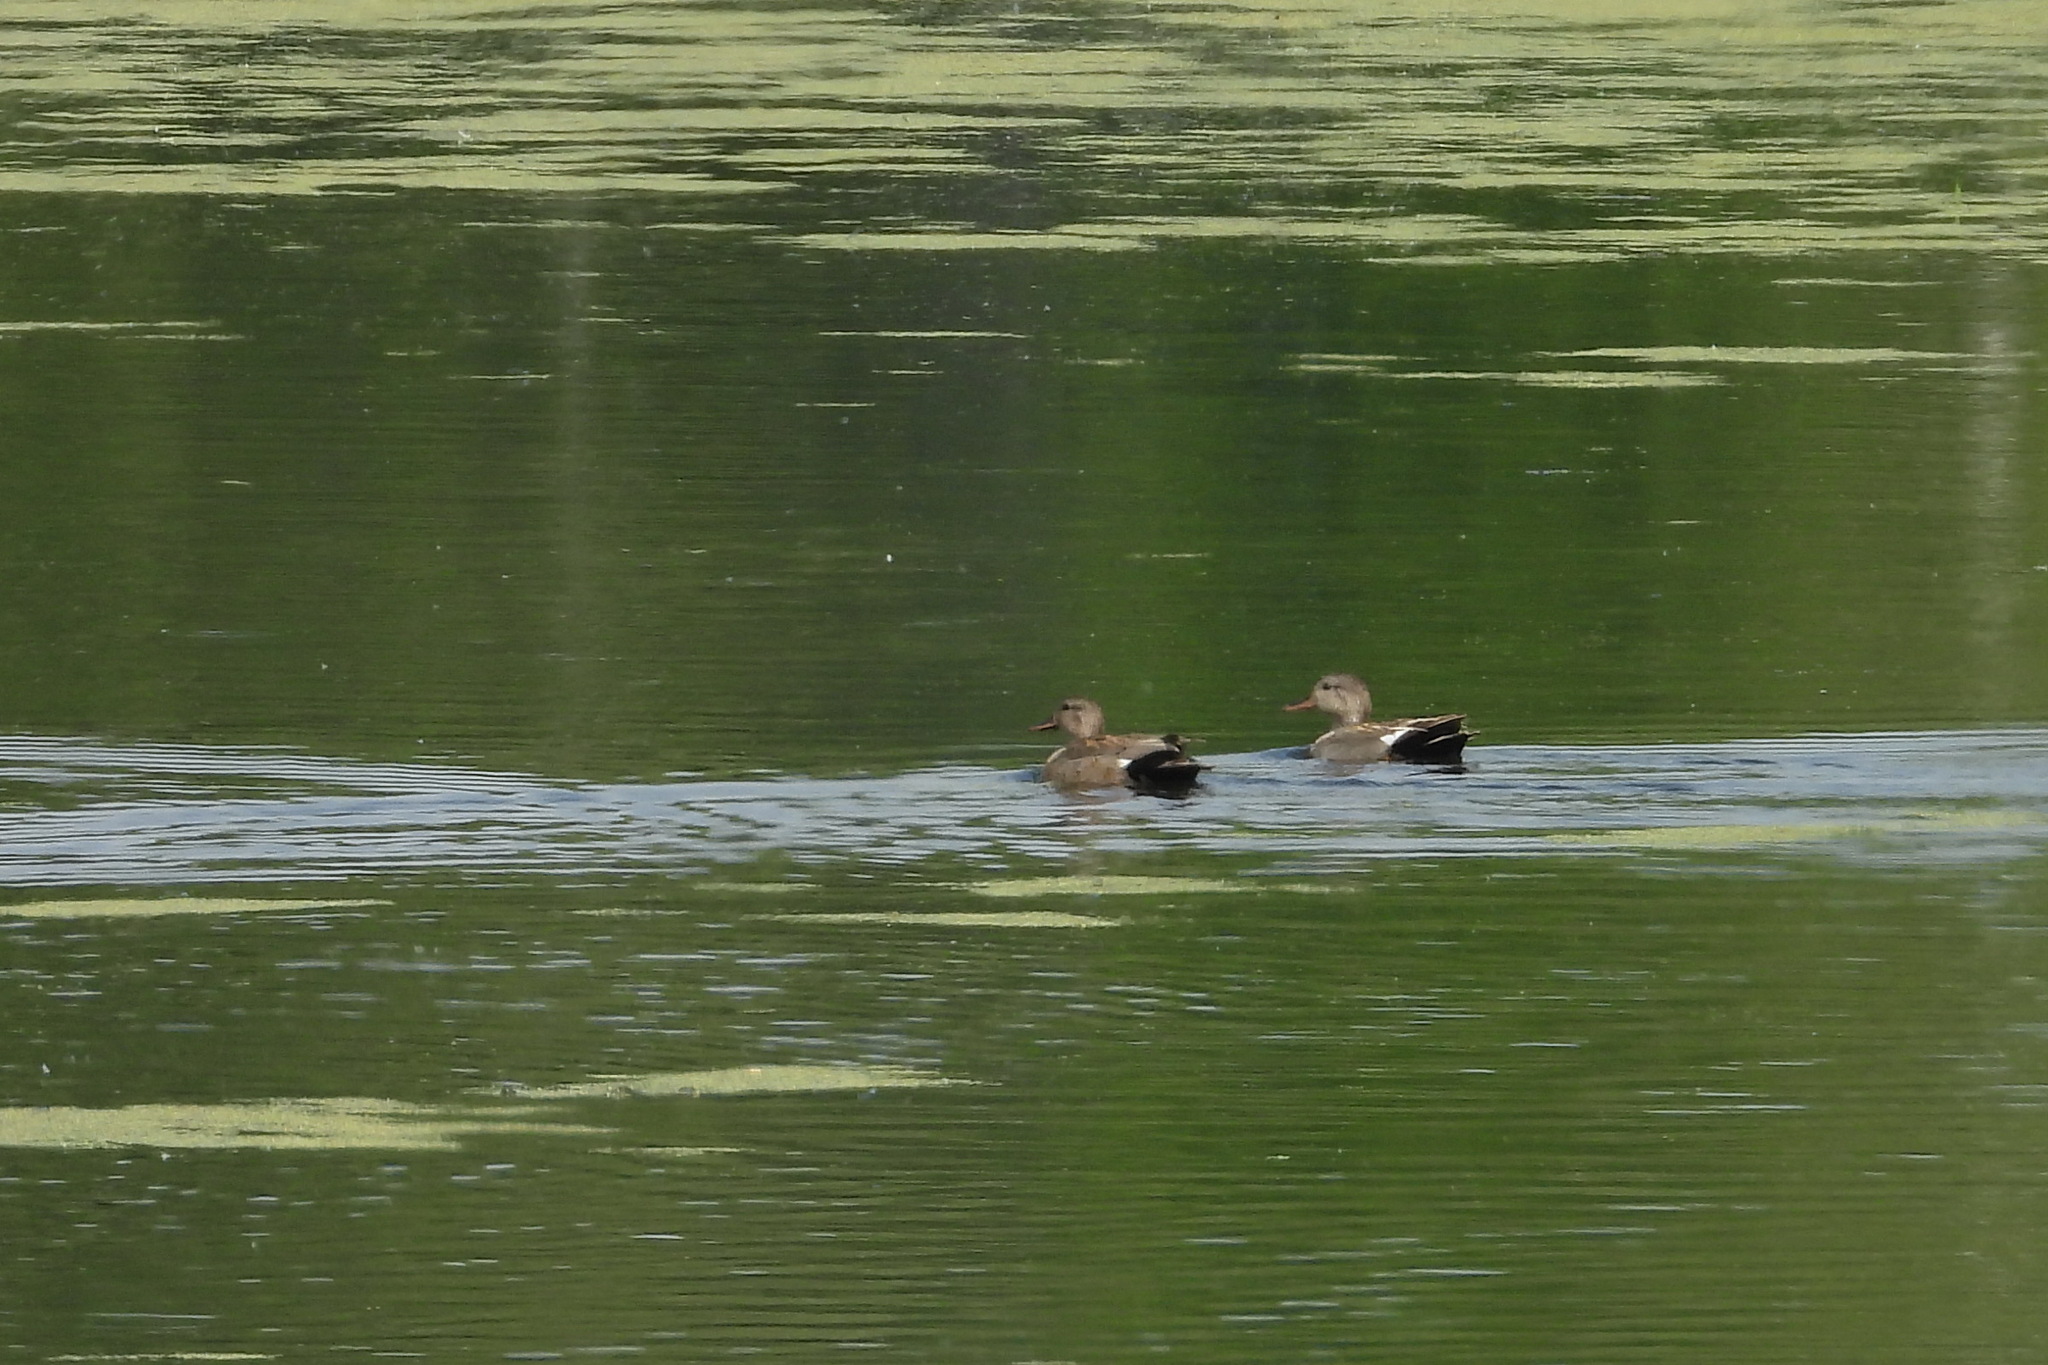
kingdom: Animalia
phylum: Chordata
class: Aves
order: Anseriformes
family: Anatidae
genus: Mareca
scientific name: Mareca strepera
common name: Gadwall
